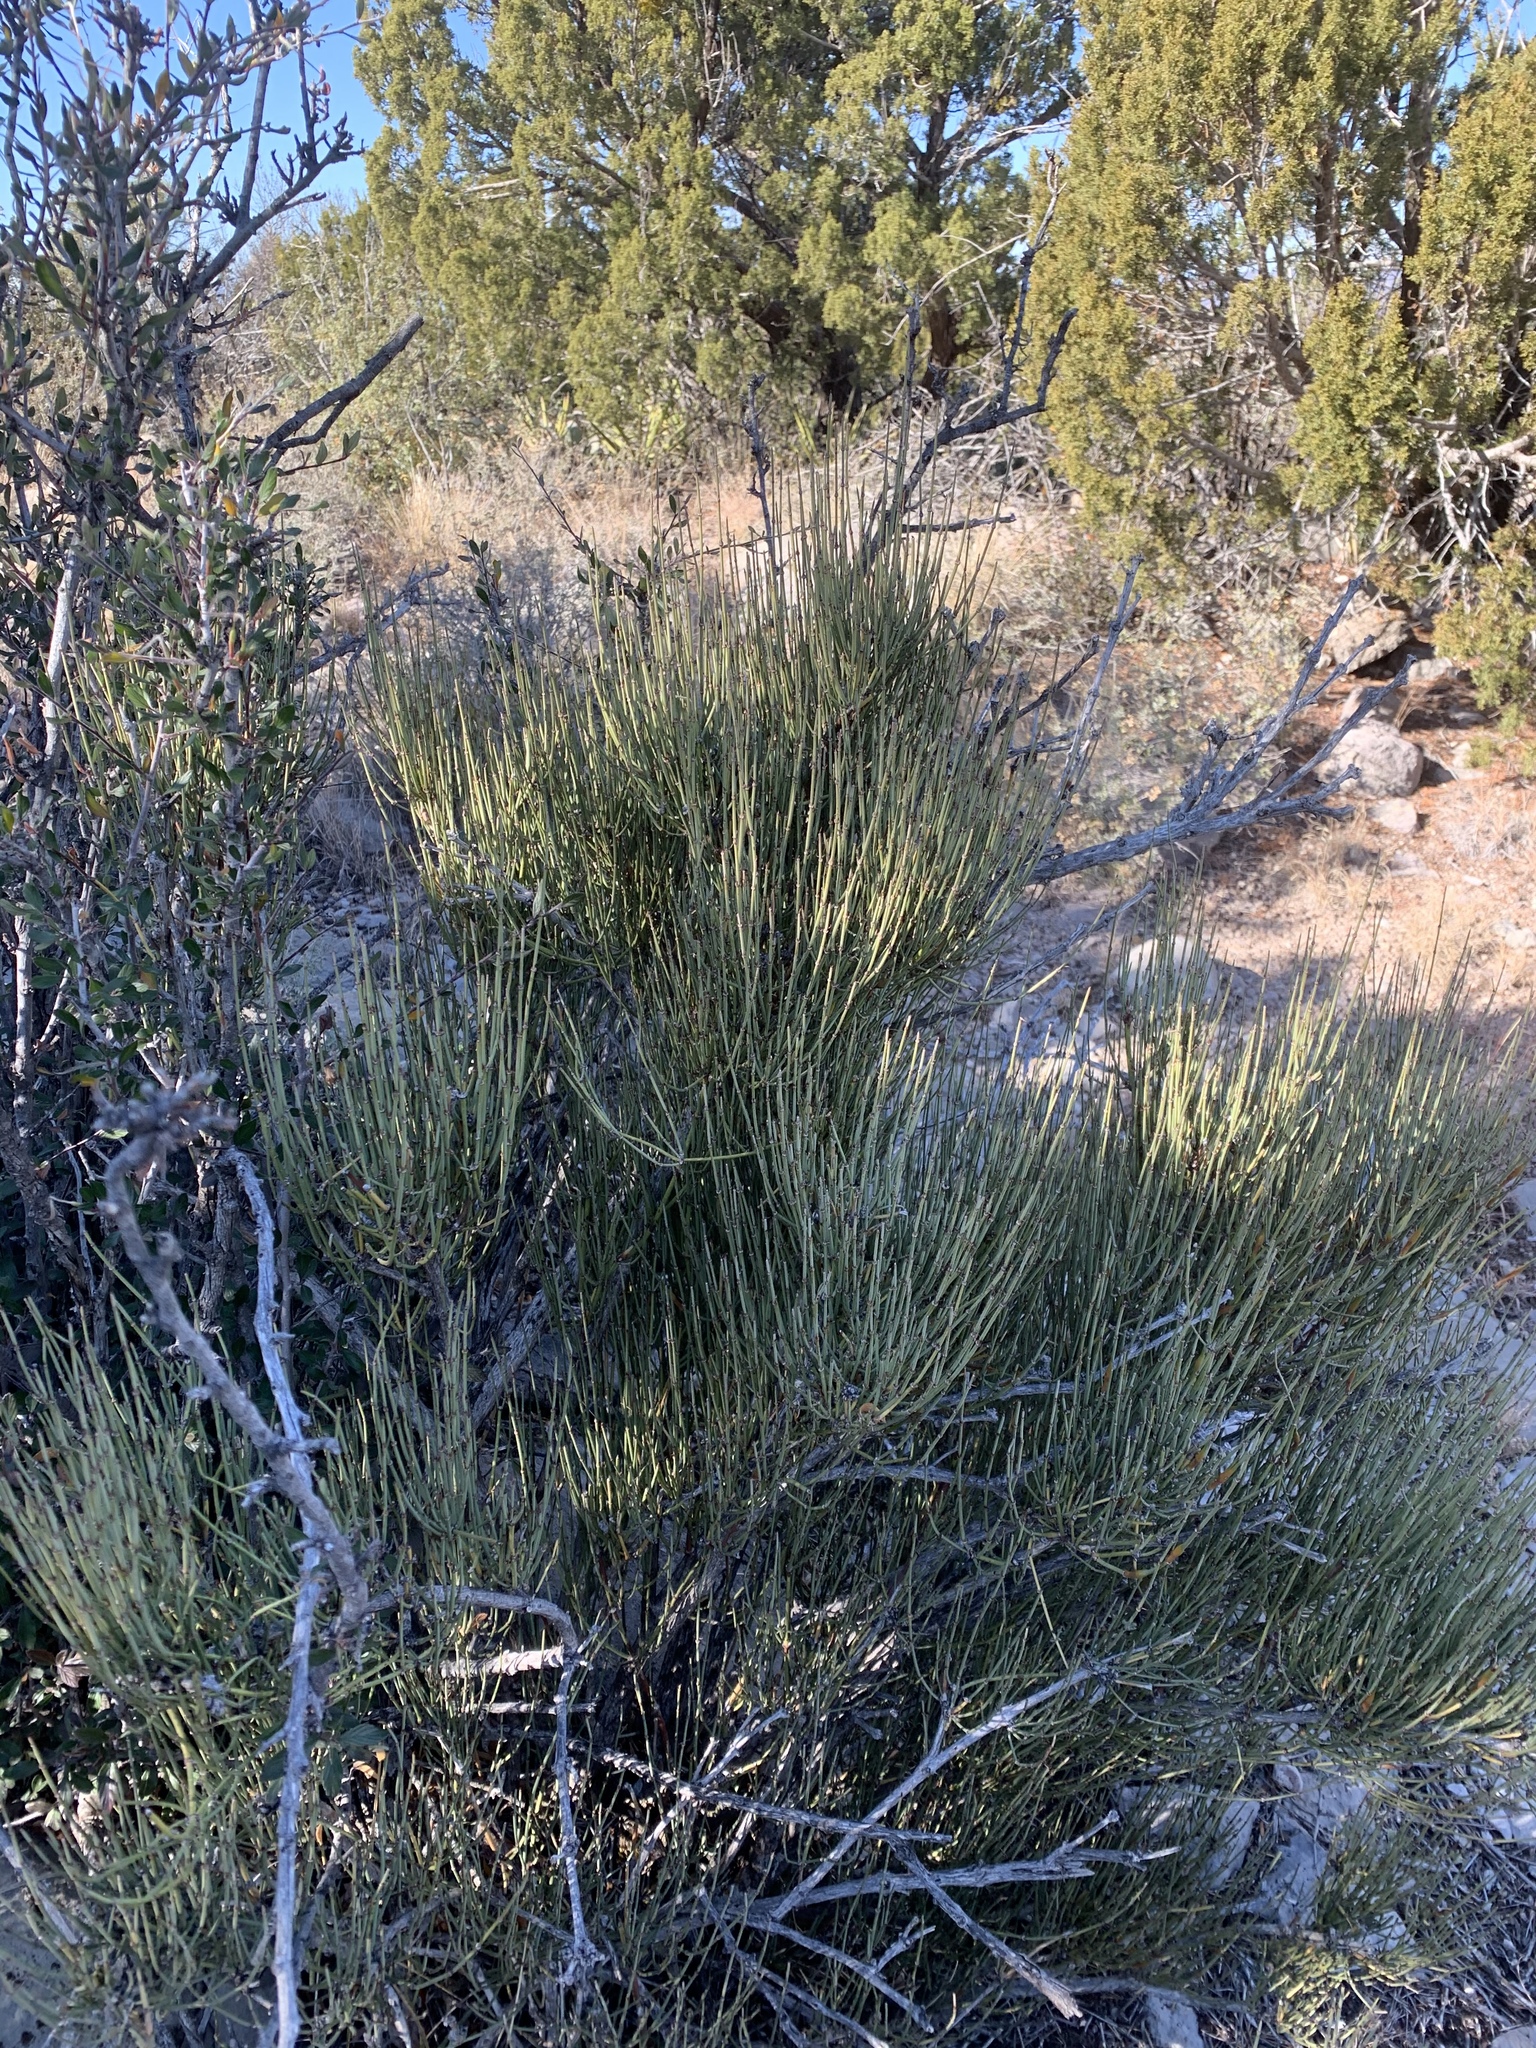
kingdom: Plantae
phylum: Tracheophyta
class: Gnetopsida
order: Ephedrales
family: Ephedraceae
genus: Ephedra
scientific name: Ephedra viridis
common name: Green ephedra
